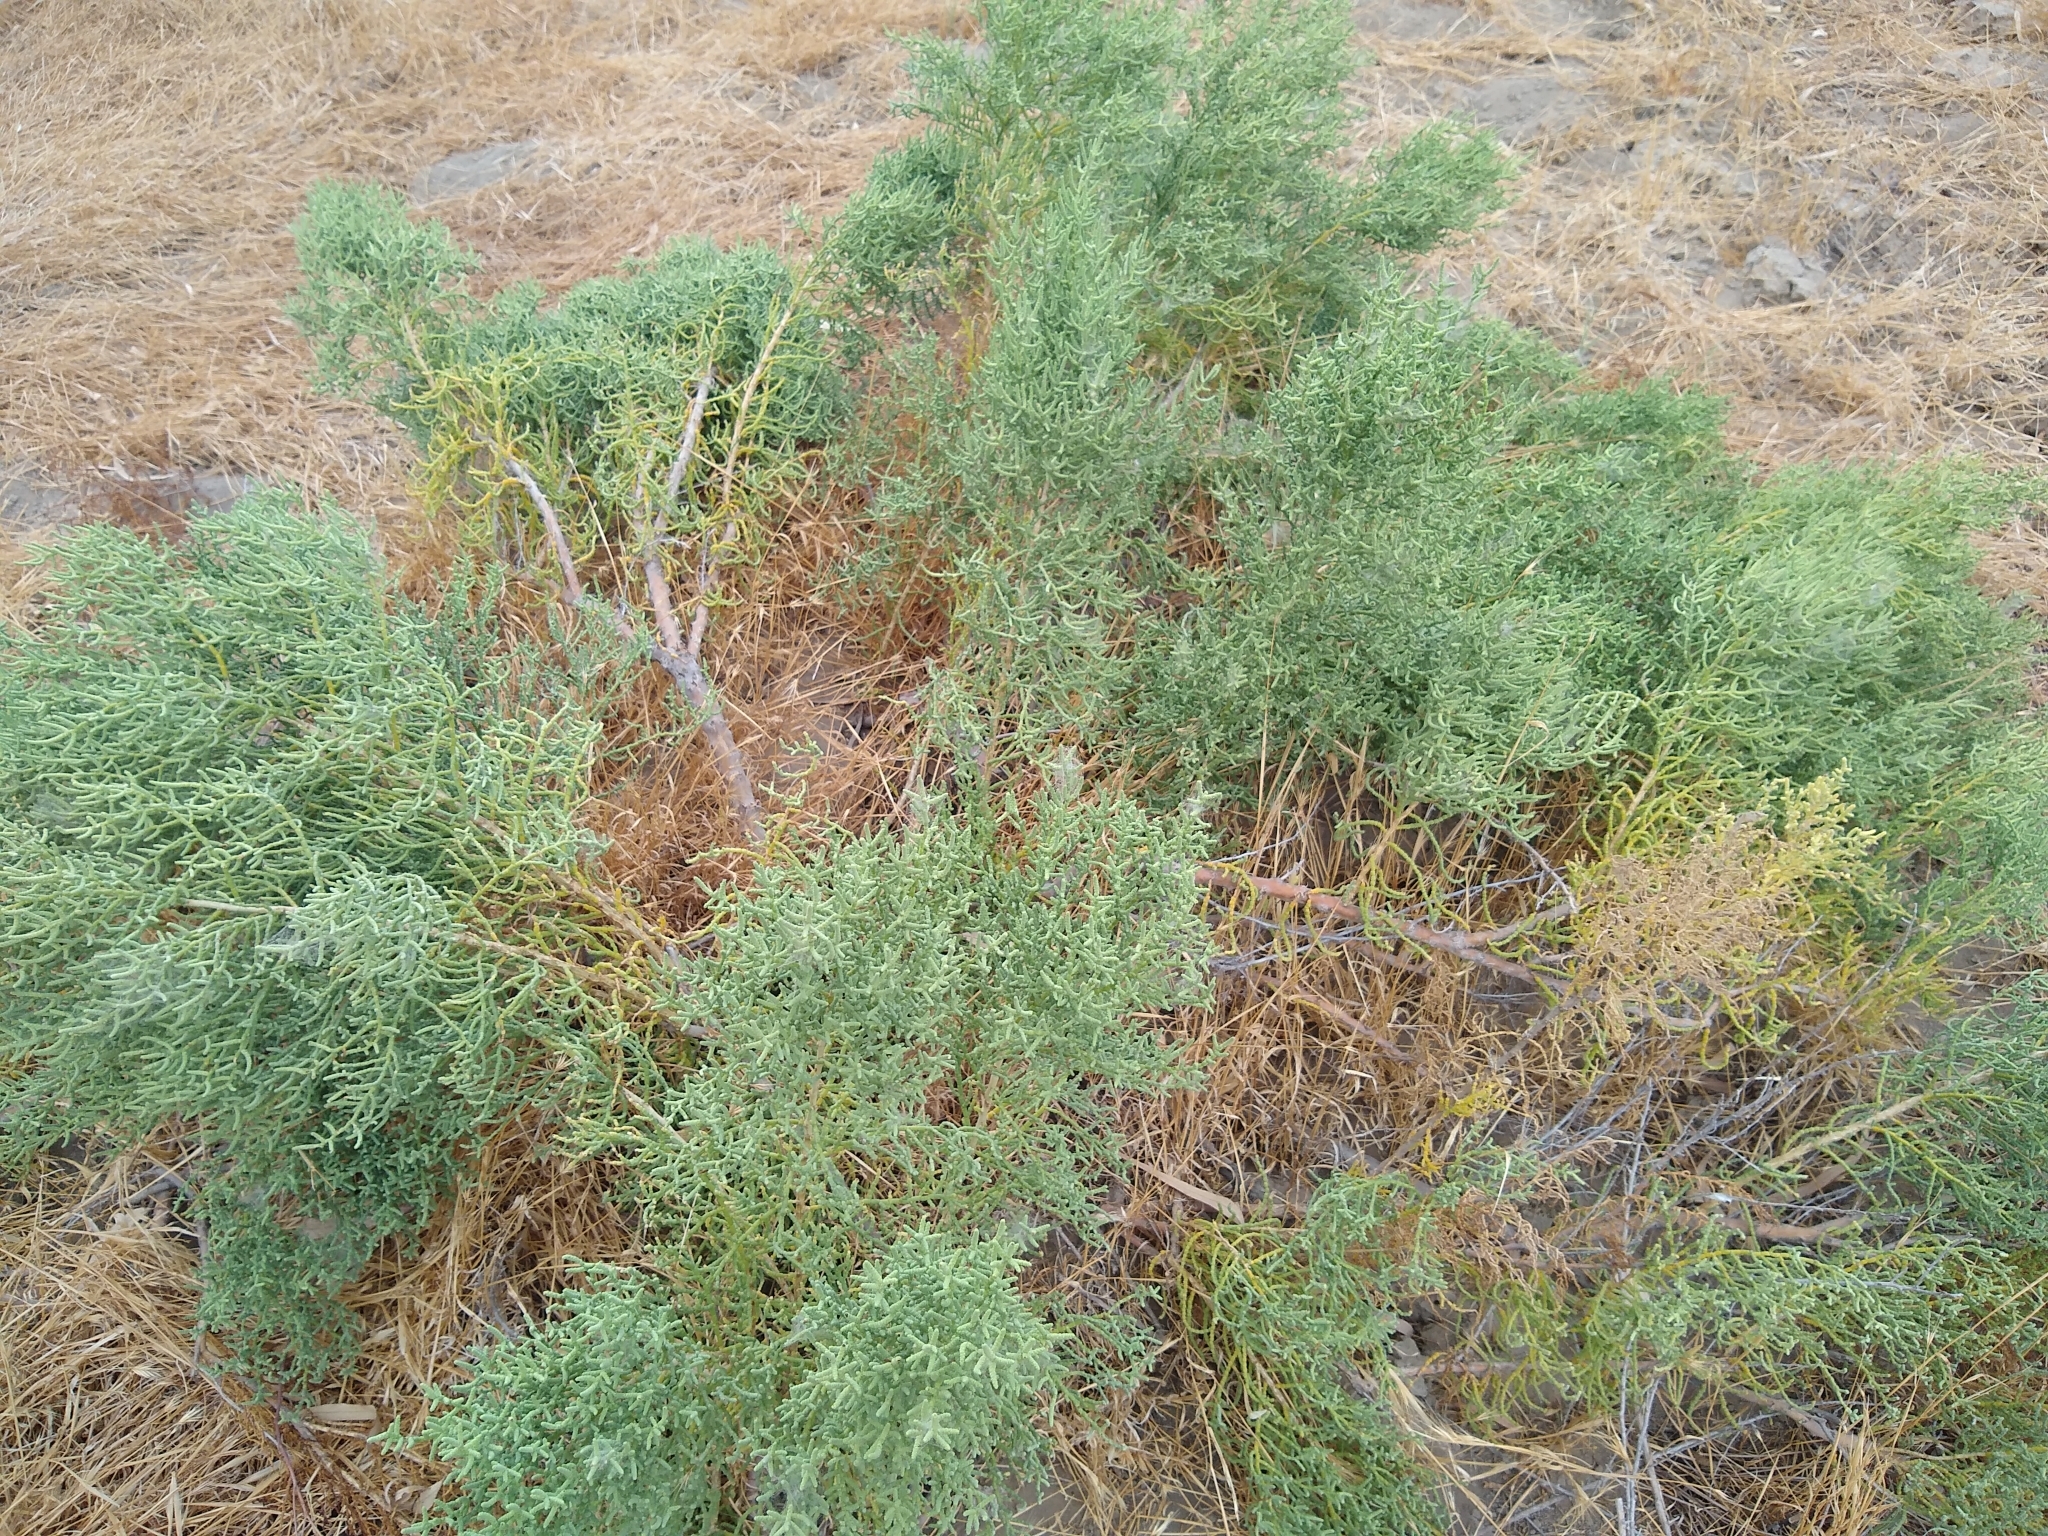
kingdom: Plantae
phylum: Tracheophyta
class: Magnoliopsida
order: Caryophyllales
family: Amaranthaceae
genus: Allenrolfea
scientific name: Allenrolfea occidentalis
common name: Iodine-bush
